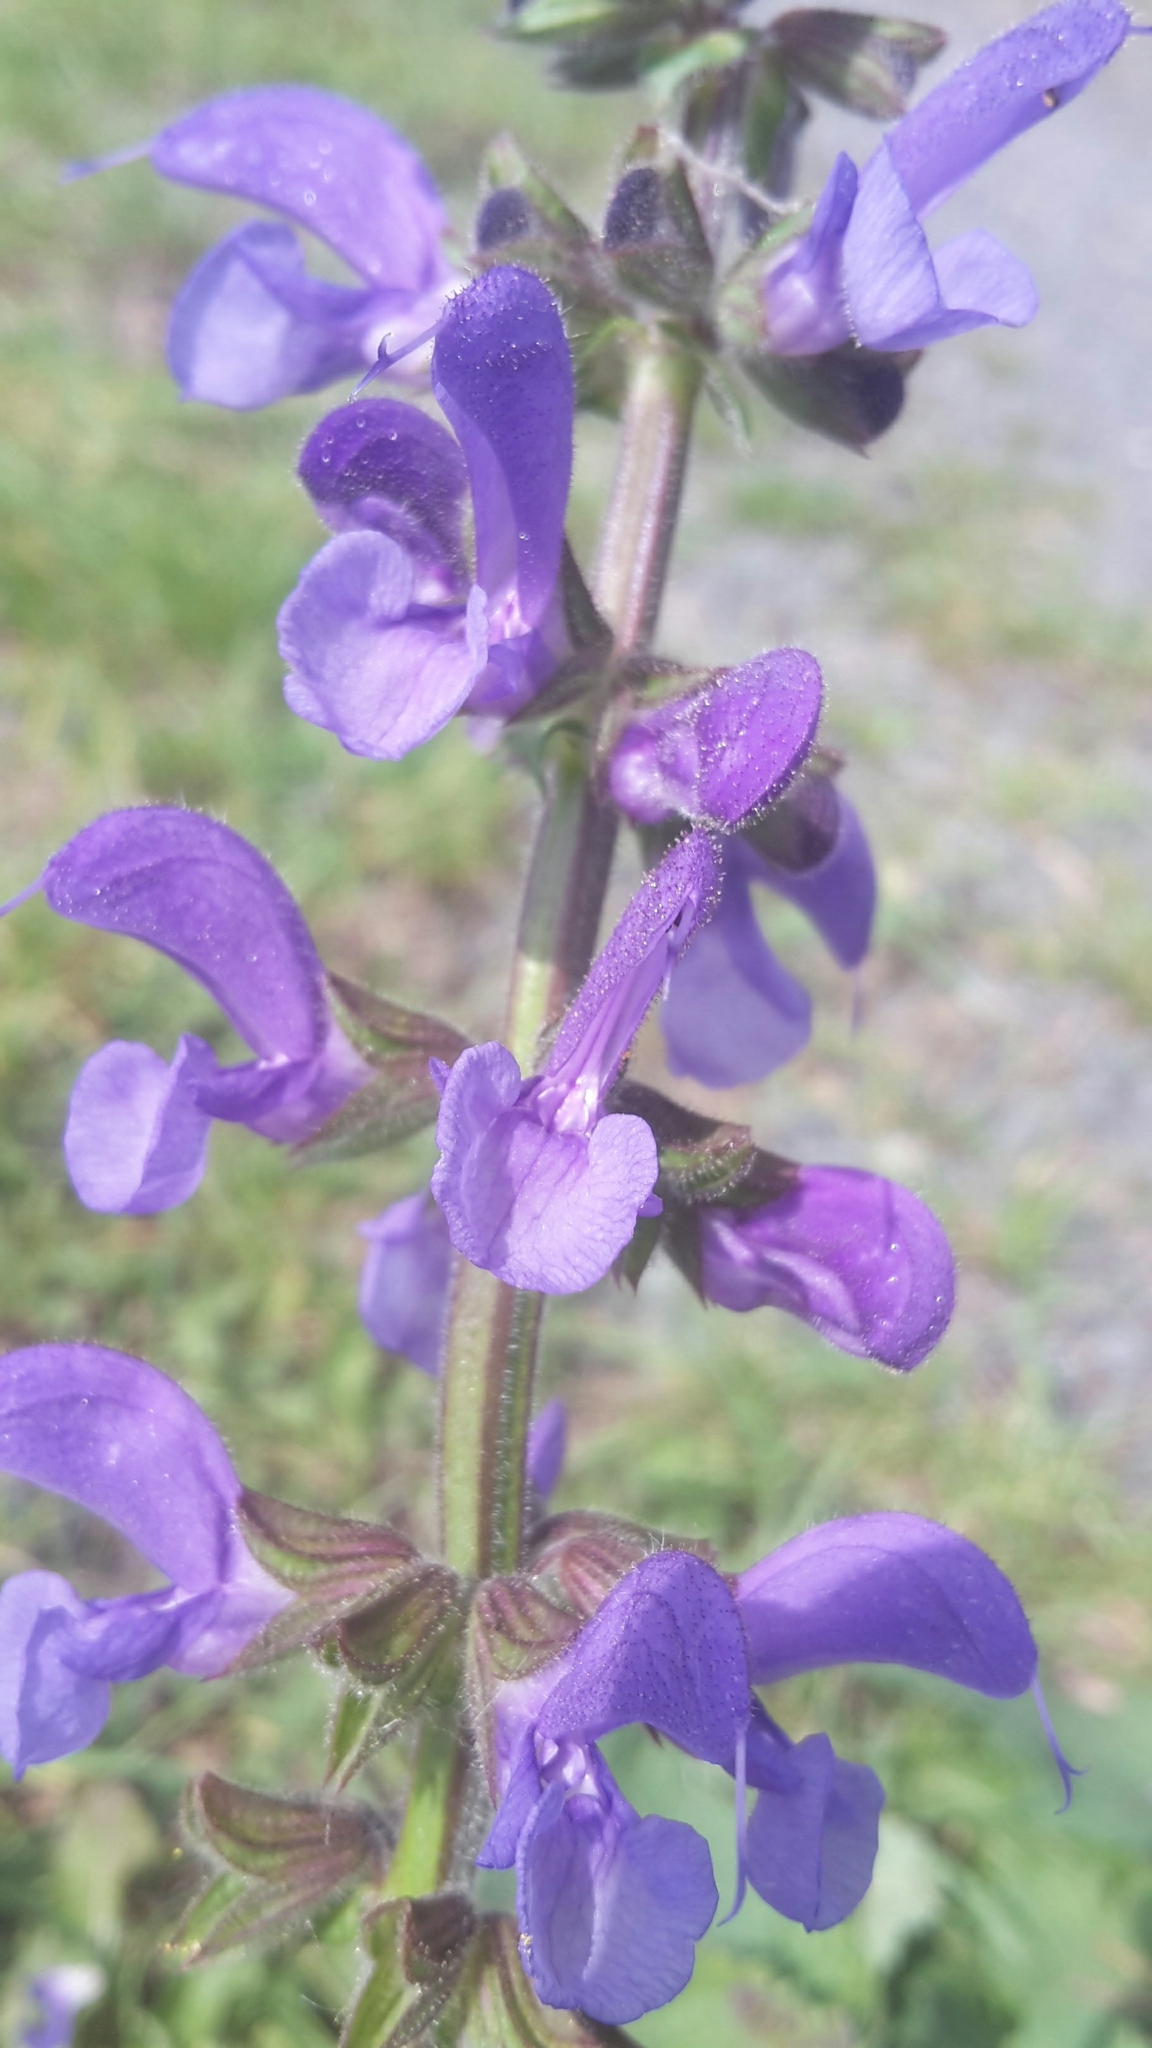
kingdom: Plantae
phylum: Tracheophyta
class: Magnoliopsida
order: Lamiales
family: Lamiaceae
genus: Salvia
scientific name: Salvia pratensis
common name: Meadow sage
